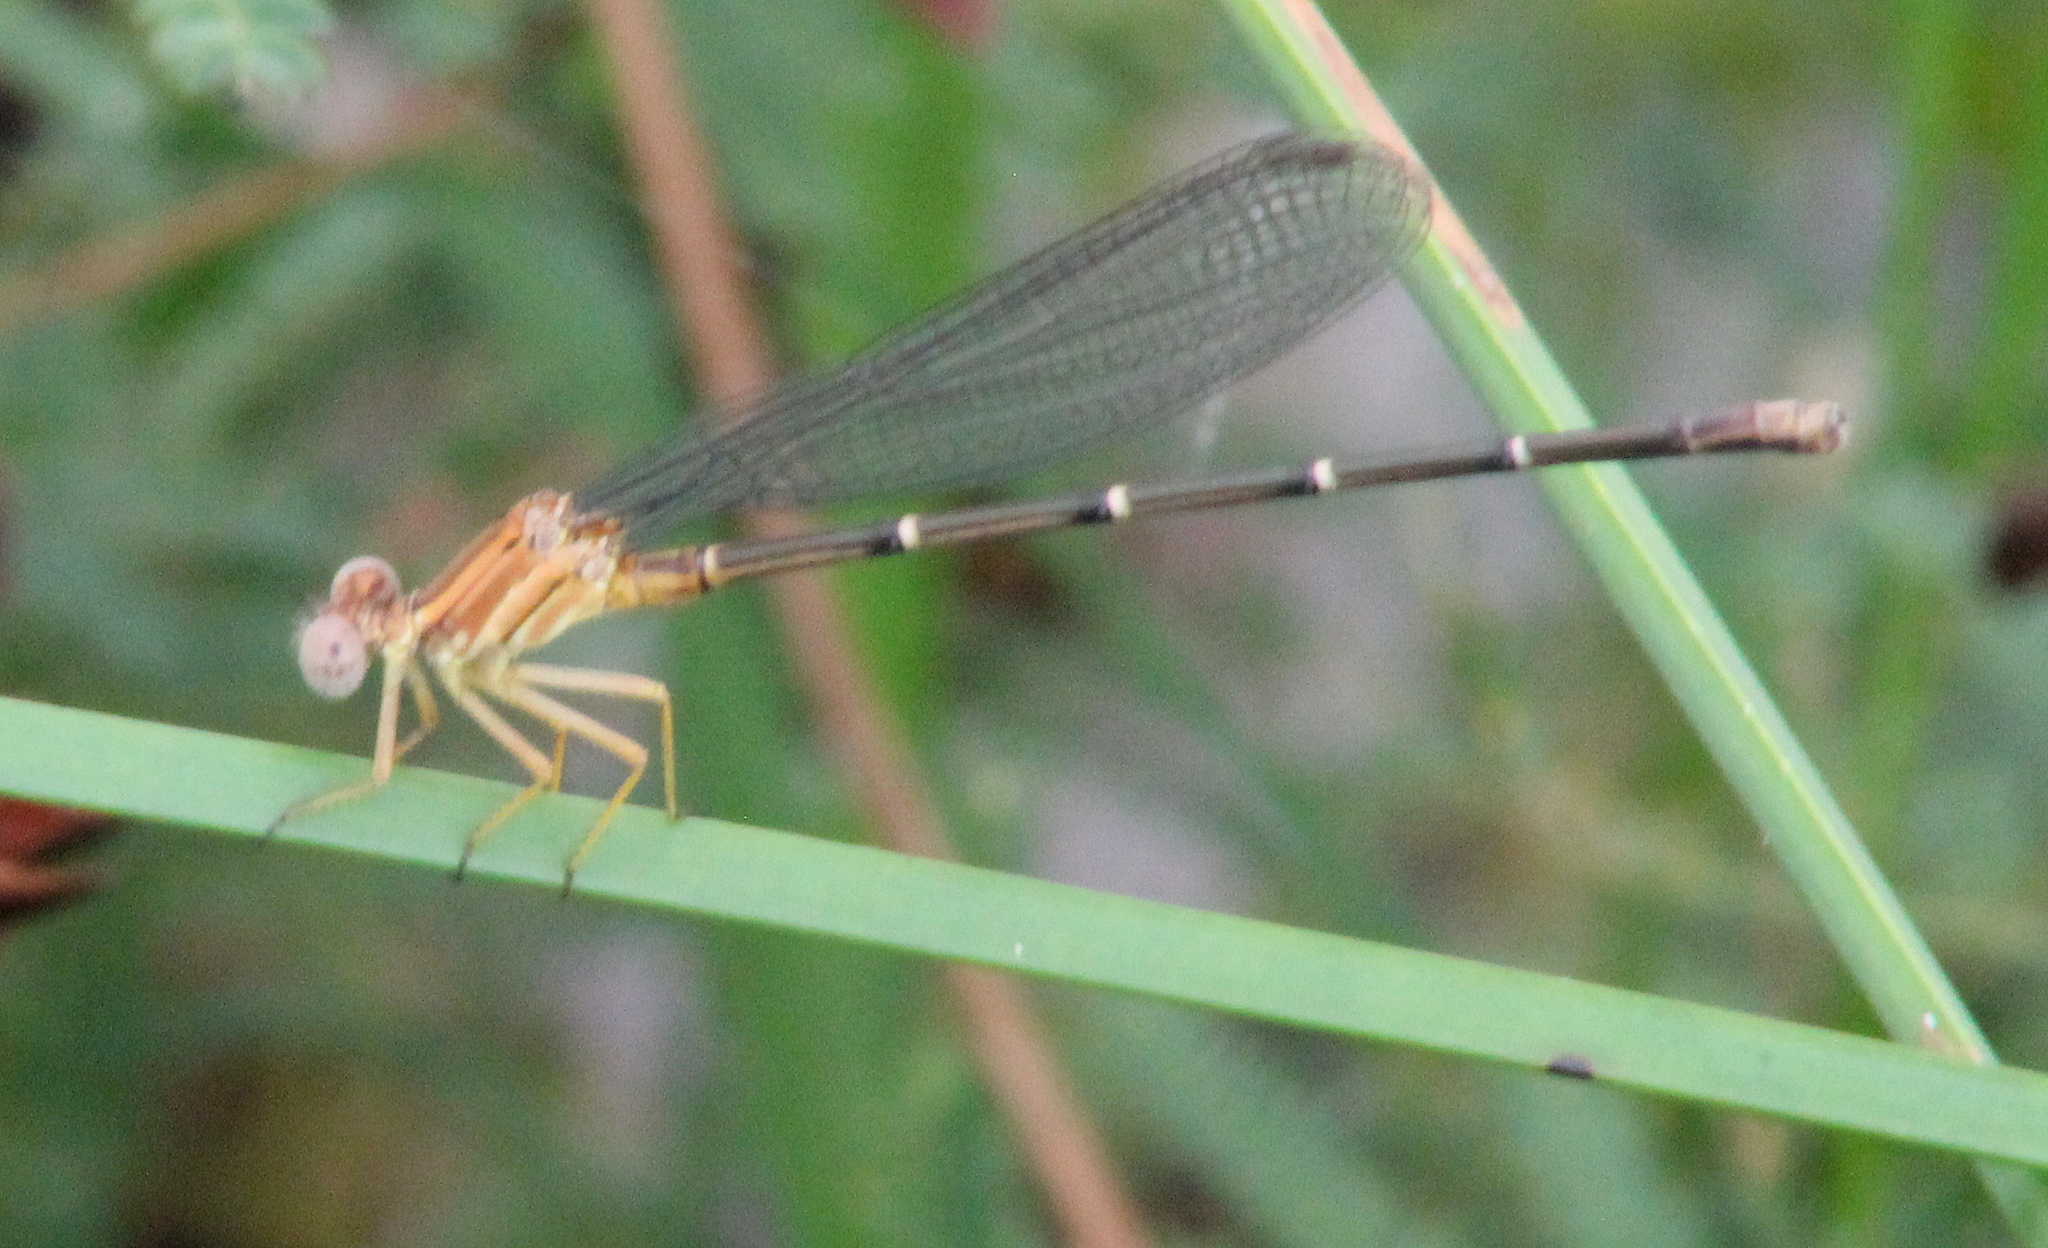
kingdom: Animalia
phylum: Arthropoda
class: Insecta
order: Odonata
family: Coenagrionidae
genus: Argia
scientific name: Argia moesta
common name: Powdered dancer
